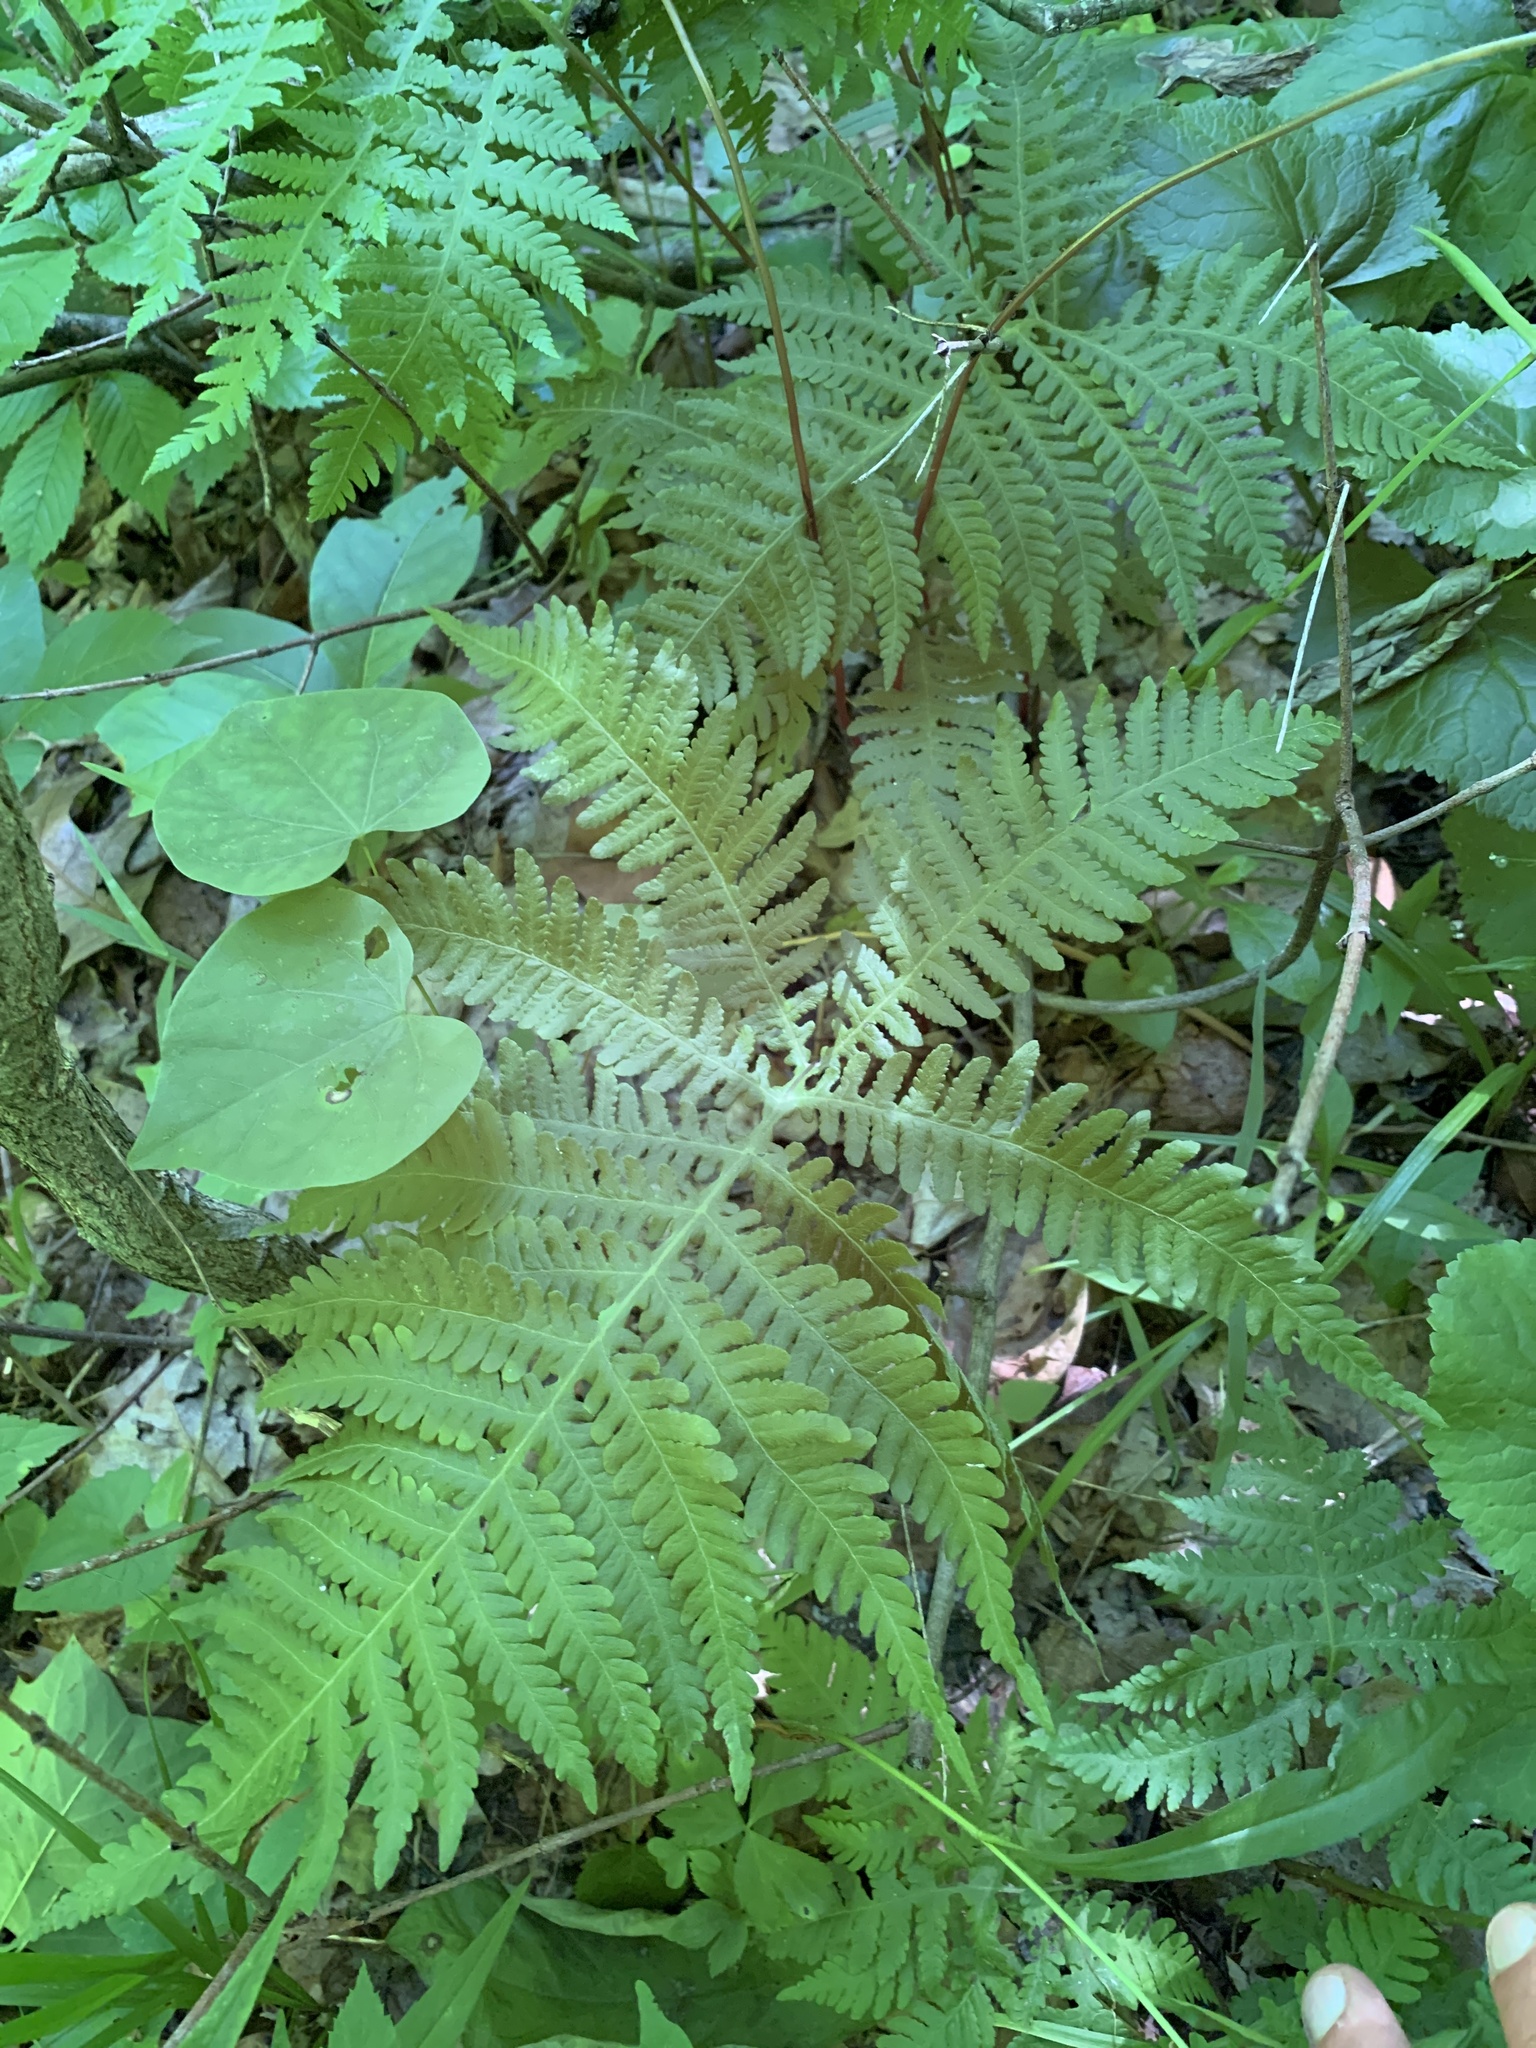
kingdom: Plantae
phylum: Tracheophyta
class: Polypodiopsida
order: Polypodiales
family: Thelypteridaceae
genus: Phegopteris
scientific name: Phegopteris hexagonoptera
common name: Broad beech fern
